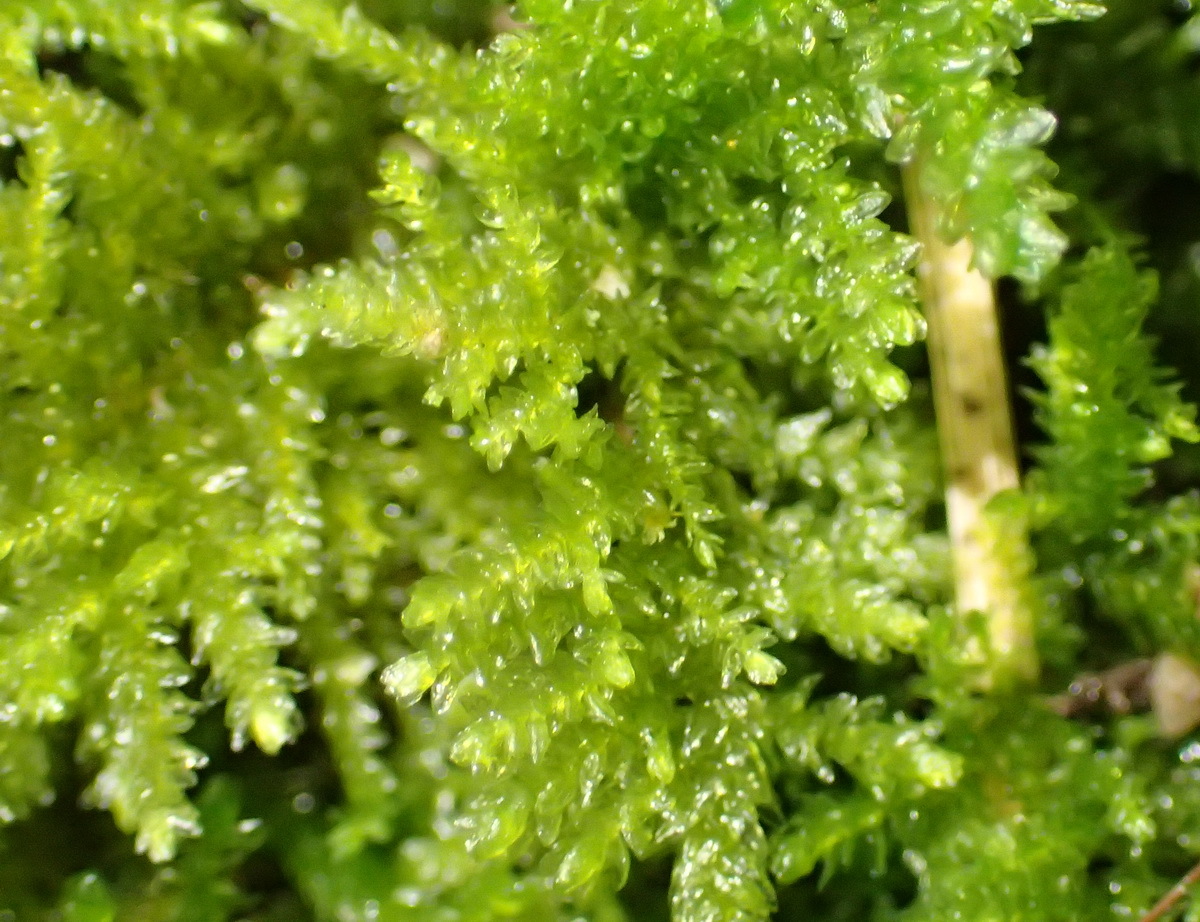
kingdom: Plantae
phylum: Bryophyta
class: Bryopsida
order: Hypnales
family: Neckeraceae
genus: Leptodon
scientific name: Leptodon smithii
